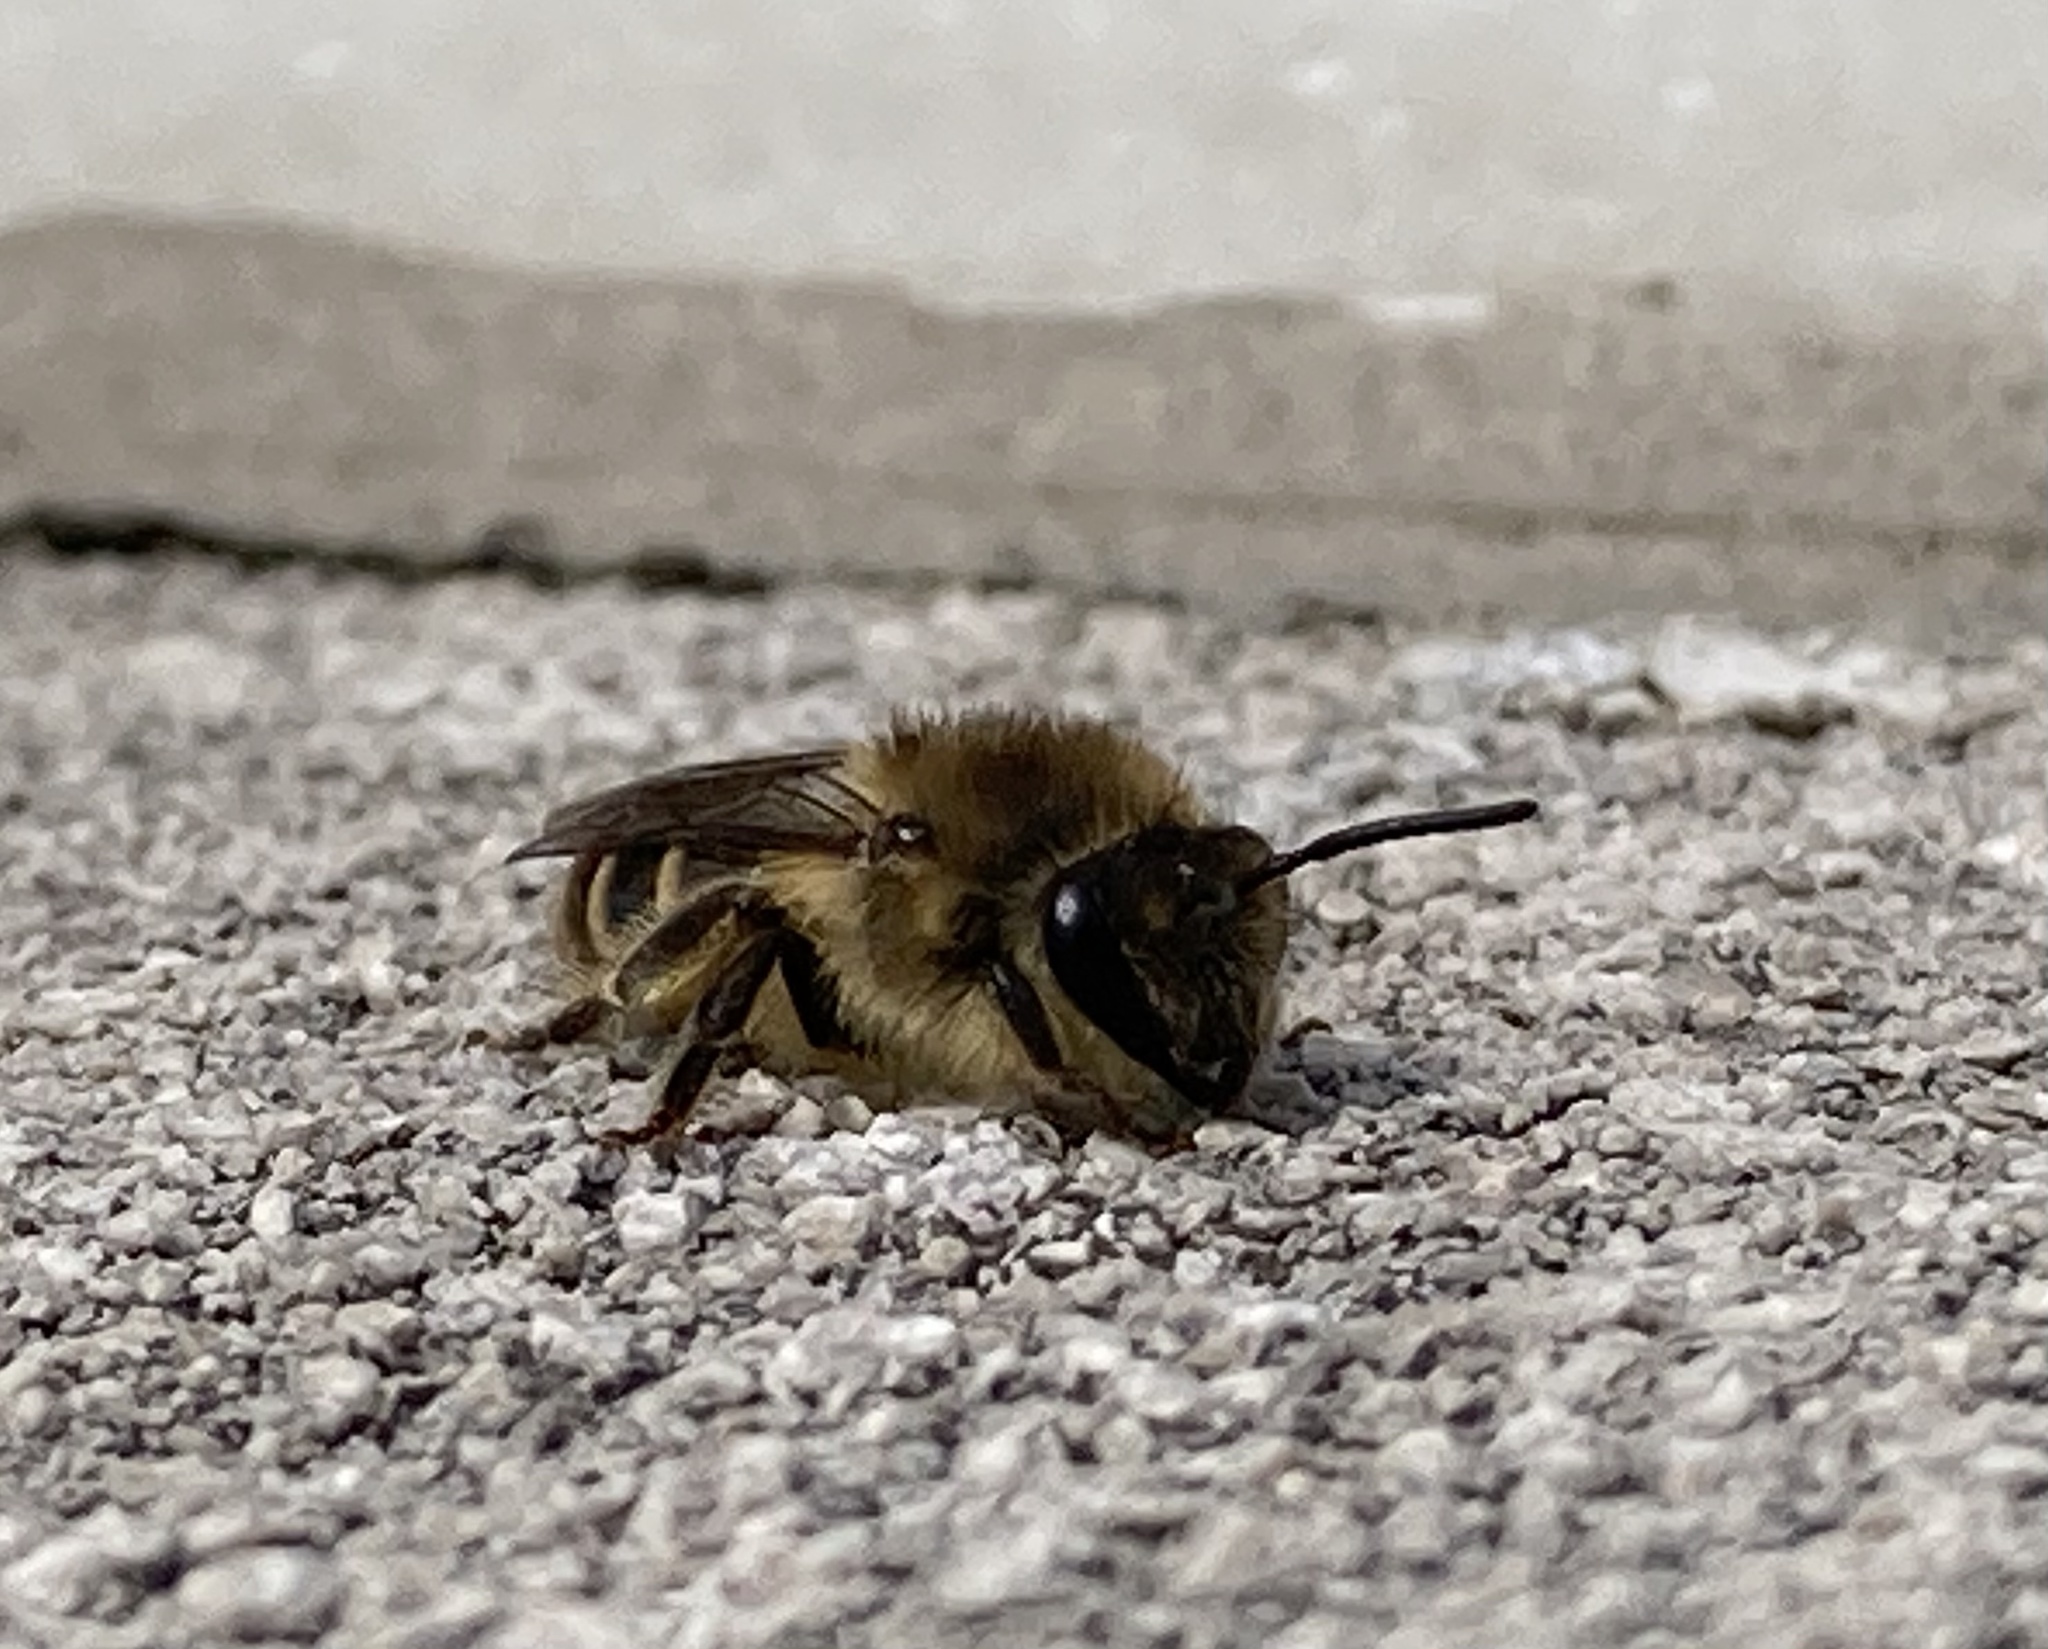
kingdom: Animalia
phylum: Arthropoda
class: Insecta
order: Hymenoptera
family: Colletidae
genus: Colletes
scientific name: Colletes inaequalis
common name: Unequal cellophane bee
